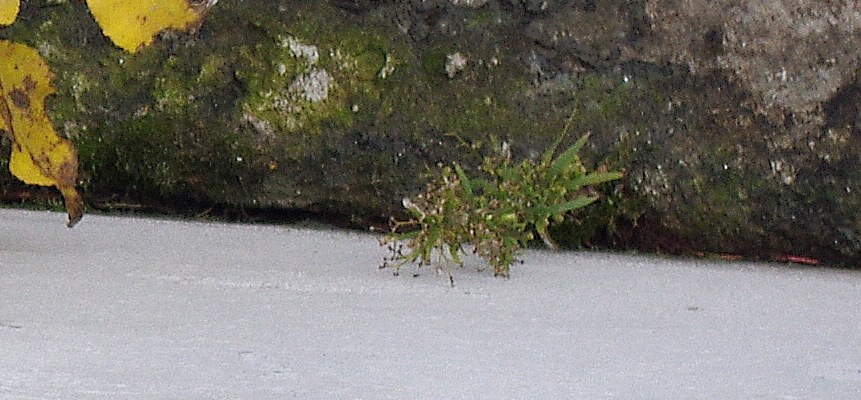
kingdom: Plantae
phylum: Tracheophyta
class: Magnoliopsida
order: Asterales
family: Asteraceae
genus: Erigeron
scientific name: Erigeron canadensis
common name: Canadian fleabane
